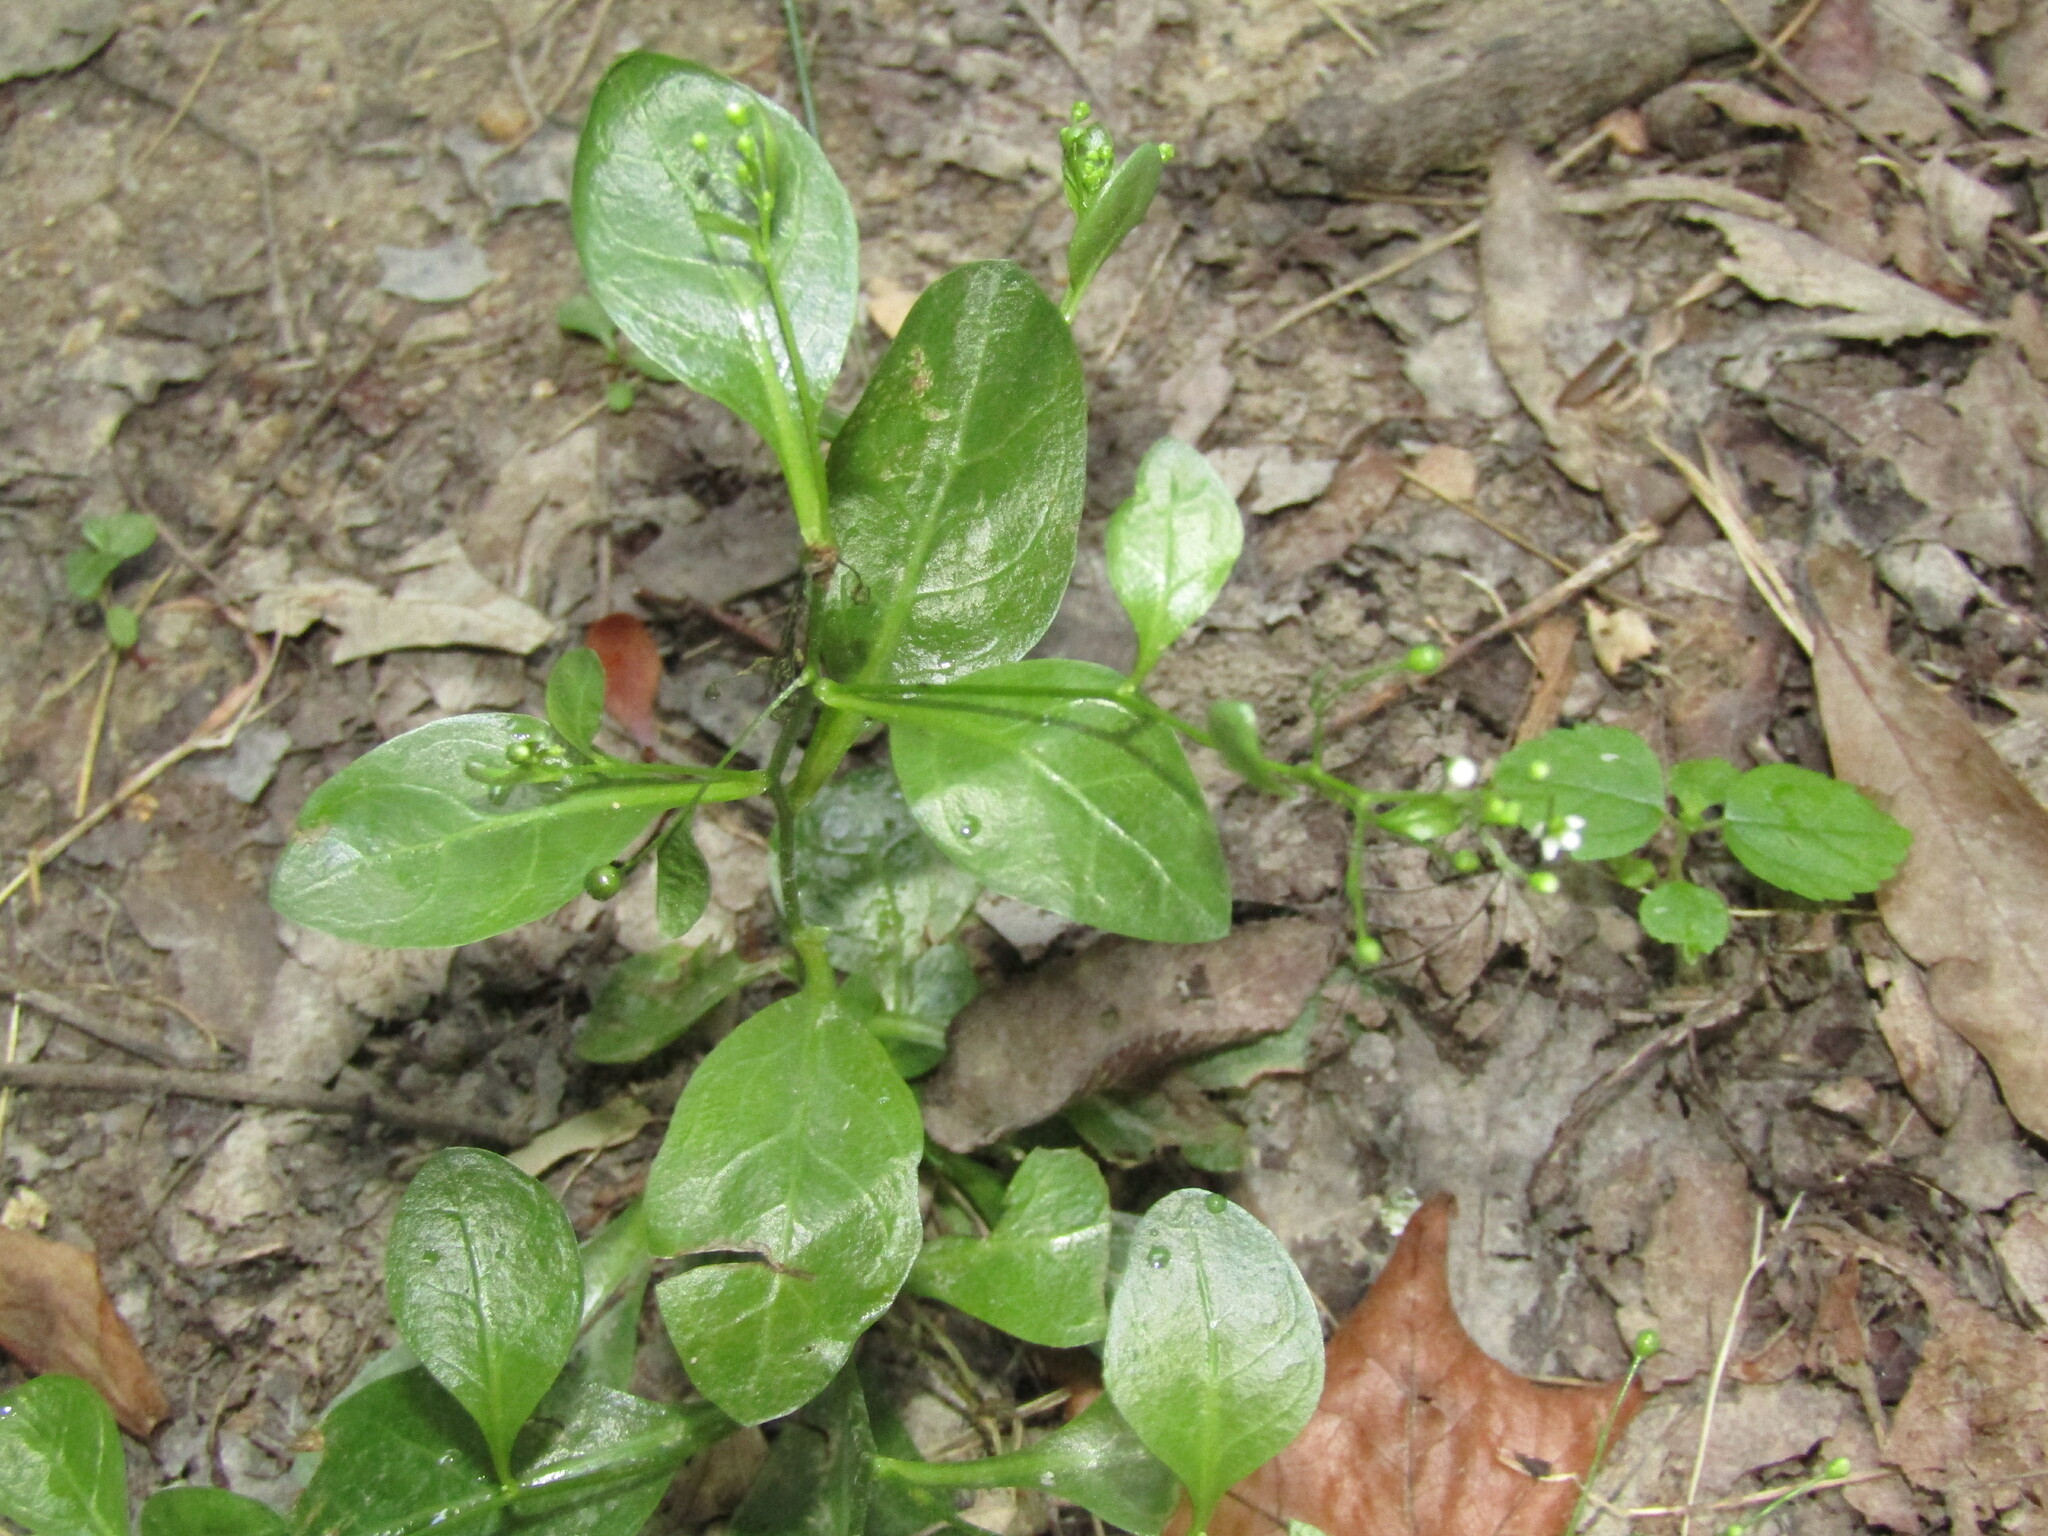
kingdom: Plantae
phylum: Tracheophyta
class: Magnoliopsida
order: Ericales
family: Primulaceae
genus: Samolus
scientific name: Samolus parviflorus
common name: False water pimpernel
